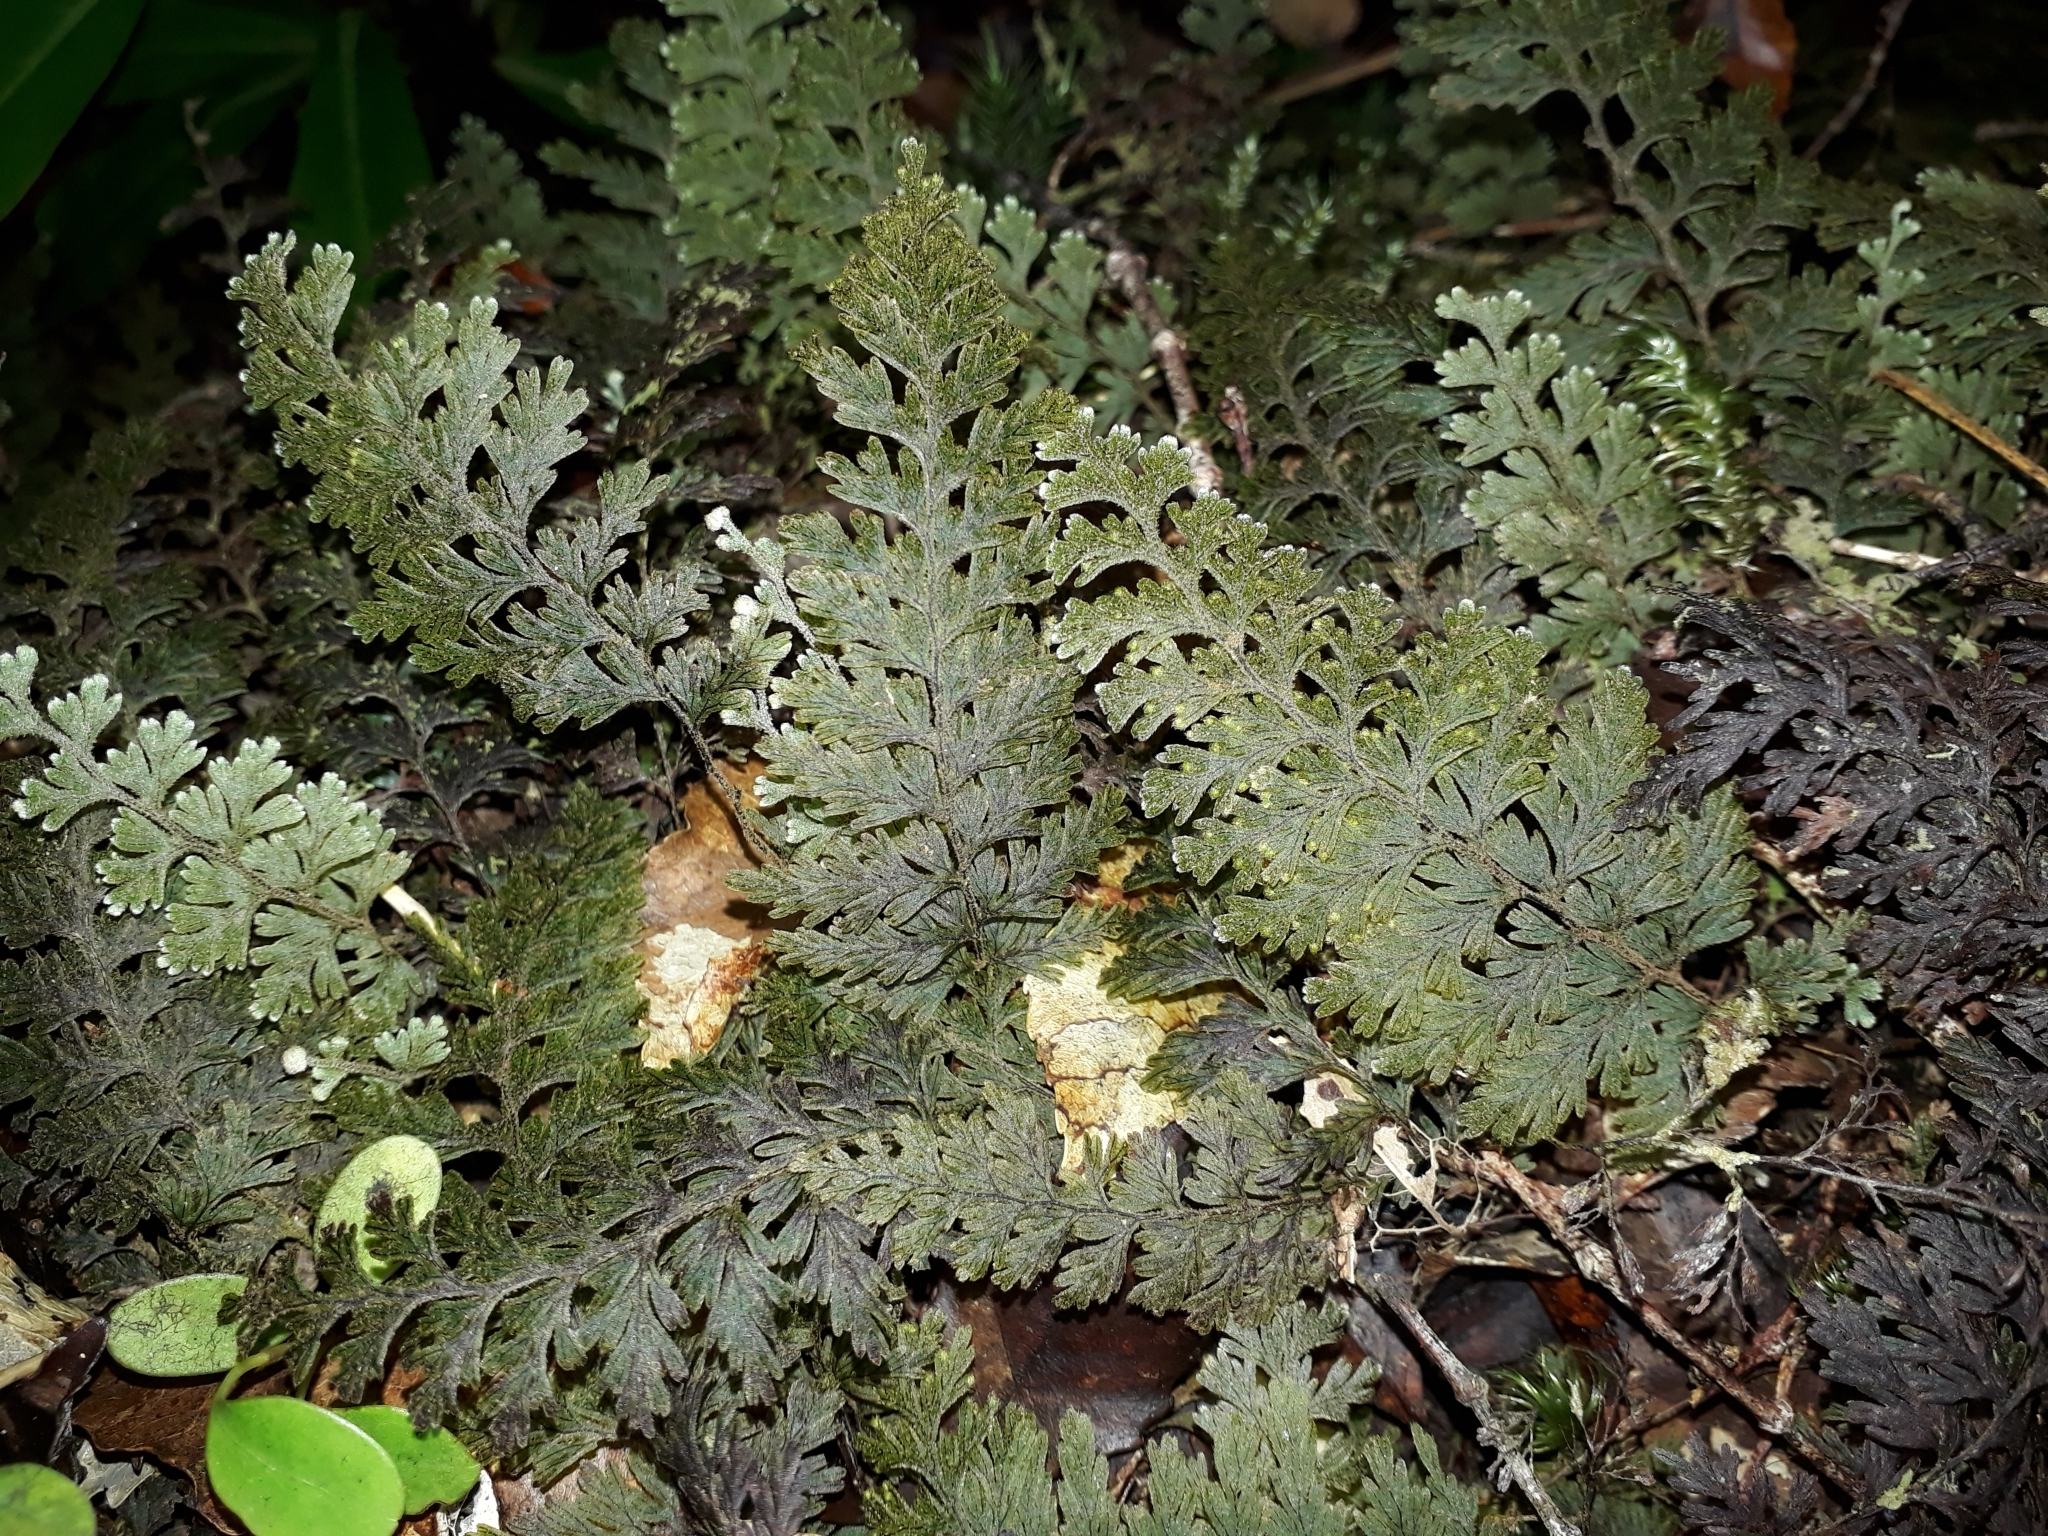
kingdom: Plantae
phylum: Tracheophyta
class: Polypodiopsida
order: Hymenophyllales
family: Hymenophyllaceae
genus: Hymenophyllum
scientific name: Hymenophyllum frankliniae
